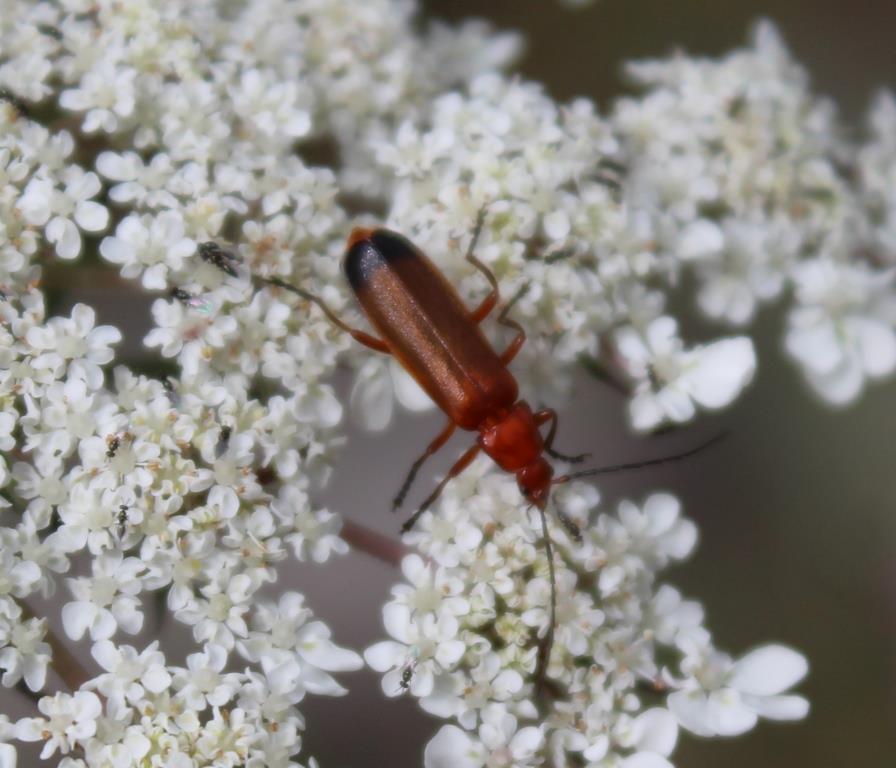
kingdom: Animalia
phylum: Arthropoda
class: Insecta
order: Coleoptera
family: Cantharidae
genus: Rhagonycha
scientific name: Rhagonycha fulva
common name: Common red soldier beetle
